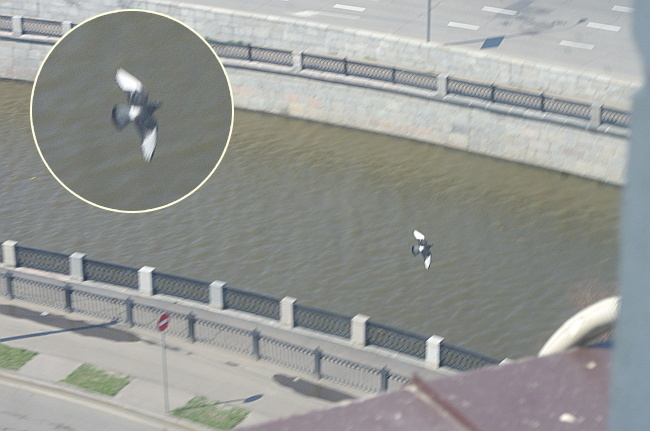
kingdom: Animalia
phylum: Chordata
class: Aves
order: Columbiformes
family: Columbidae
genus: Columba
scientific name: Columba livia
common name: Rock pigeon
